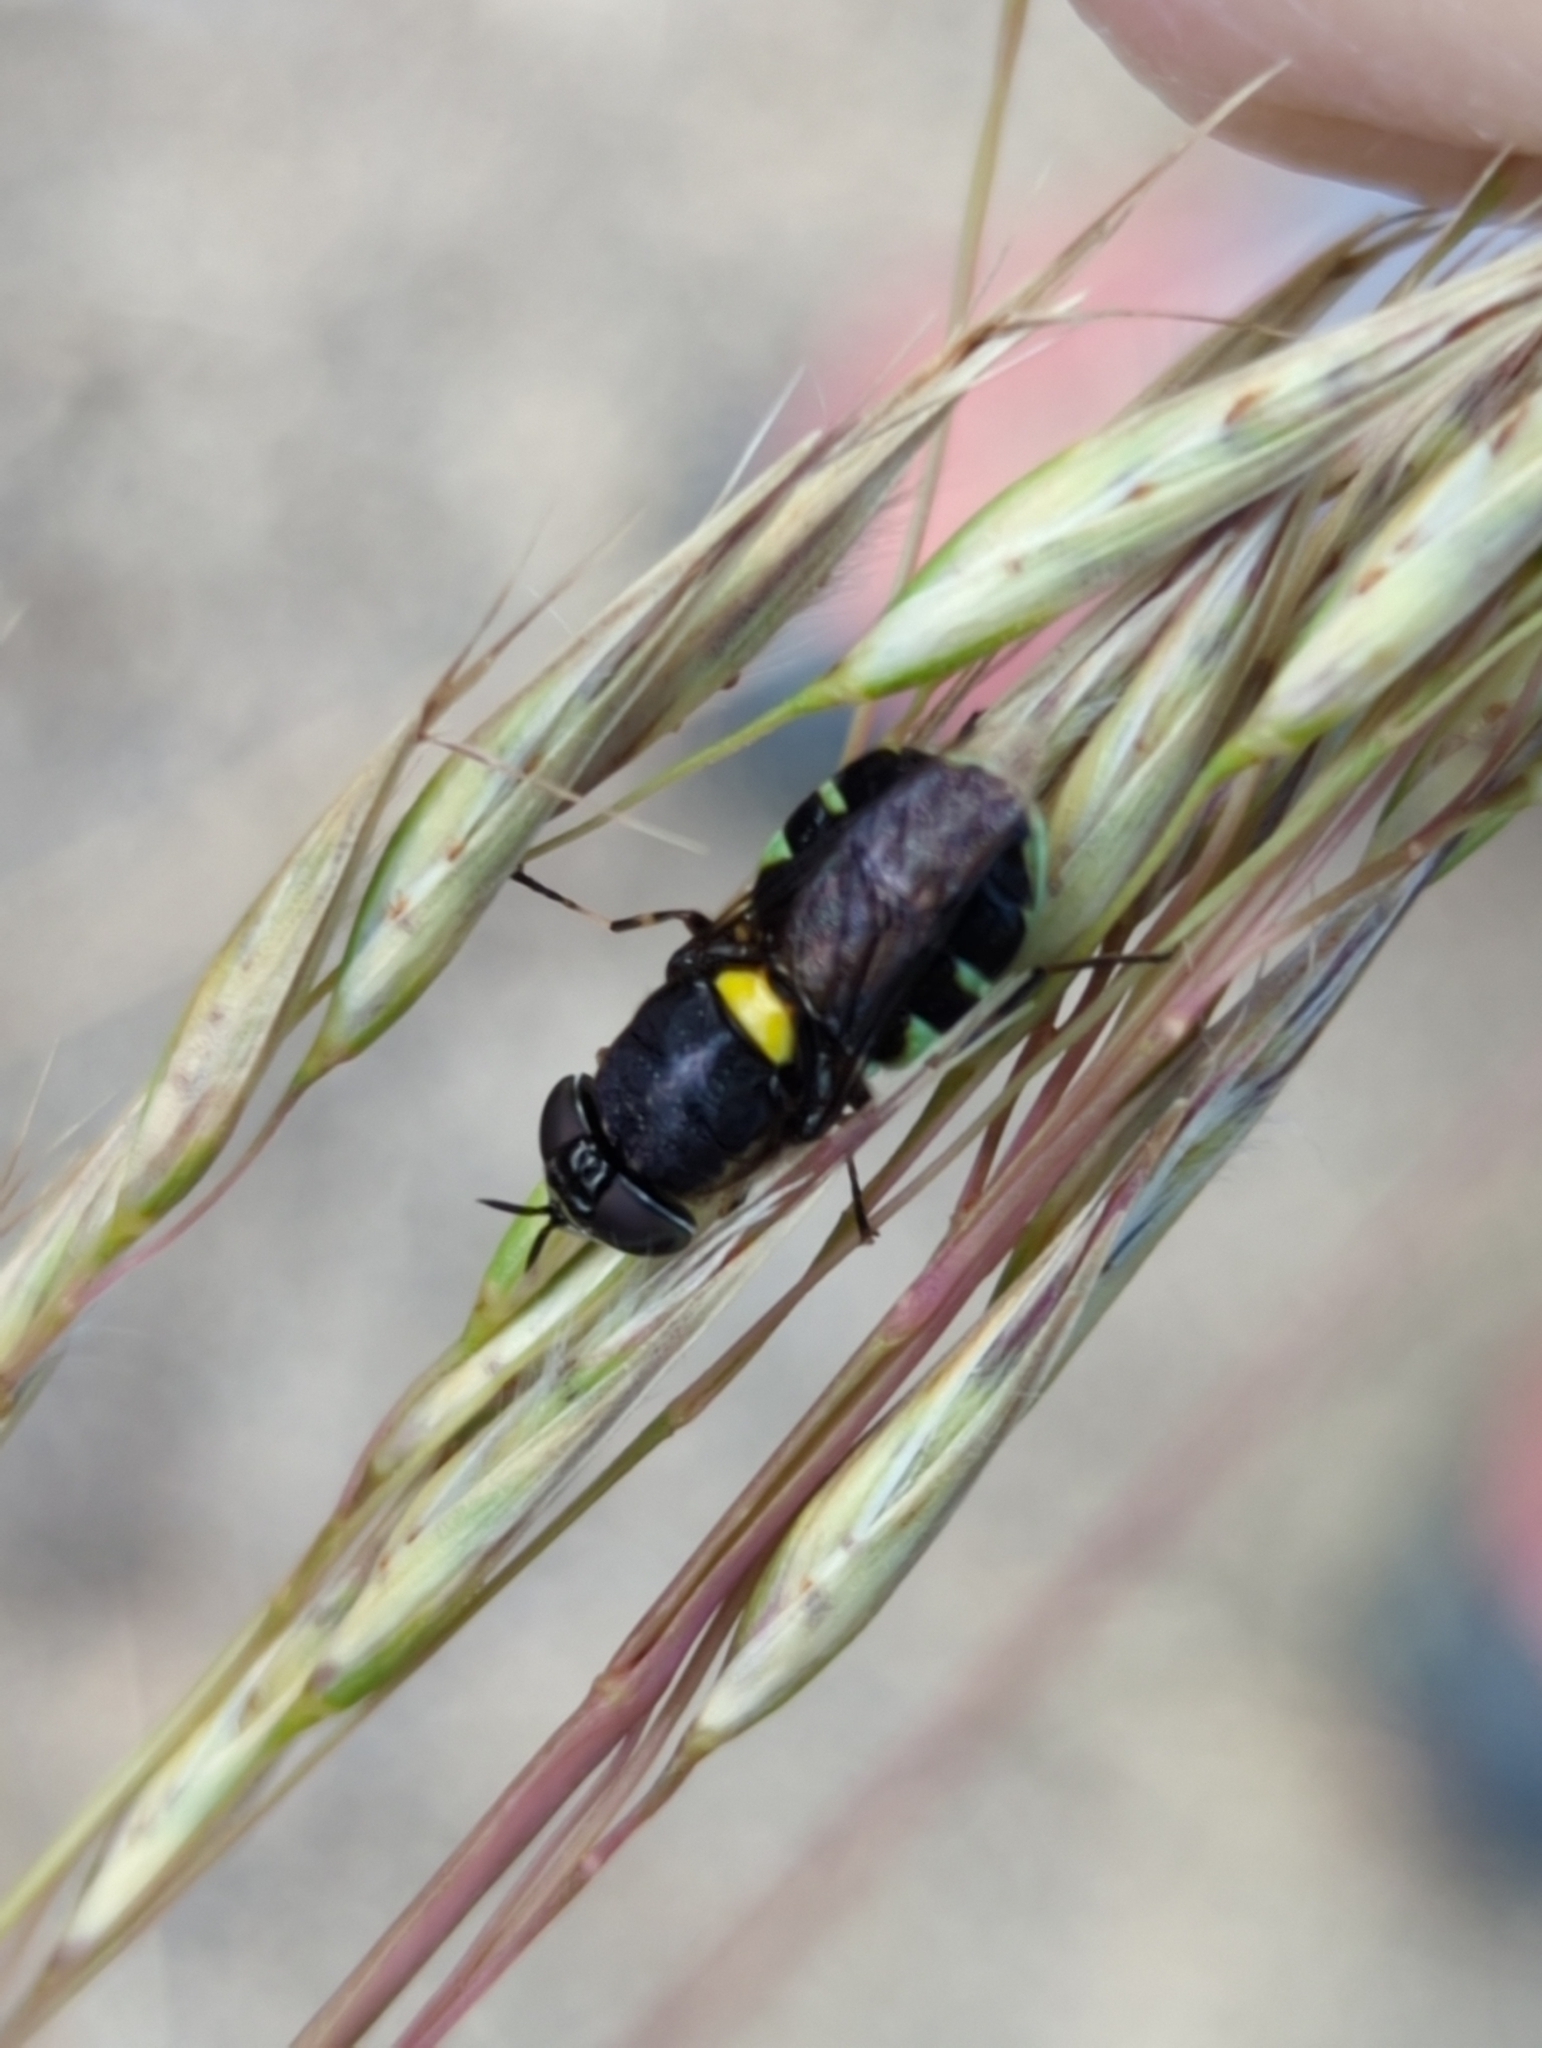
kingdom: Animalia
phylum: Arthropoda
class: Insecta
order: Diptera
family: Stratiomyidae
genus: Odontomyia
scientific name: Odontomyia hunteri
